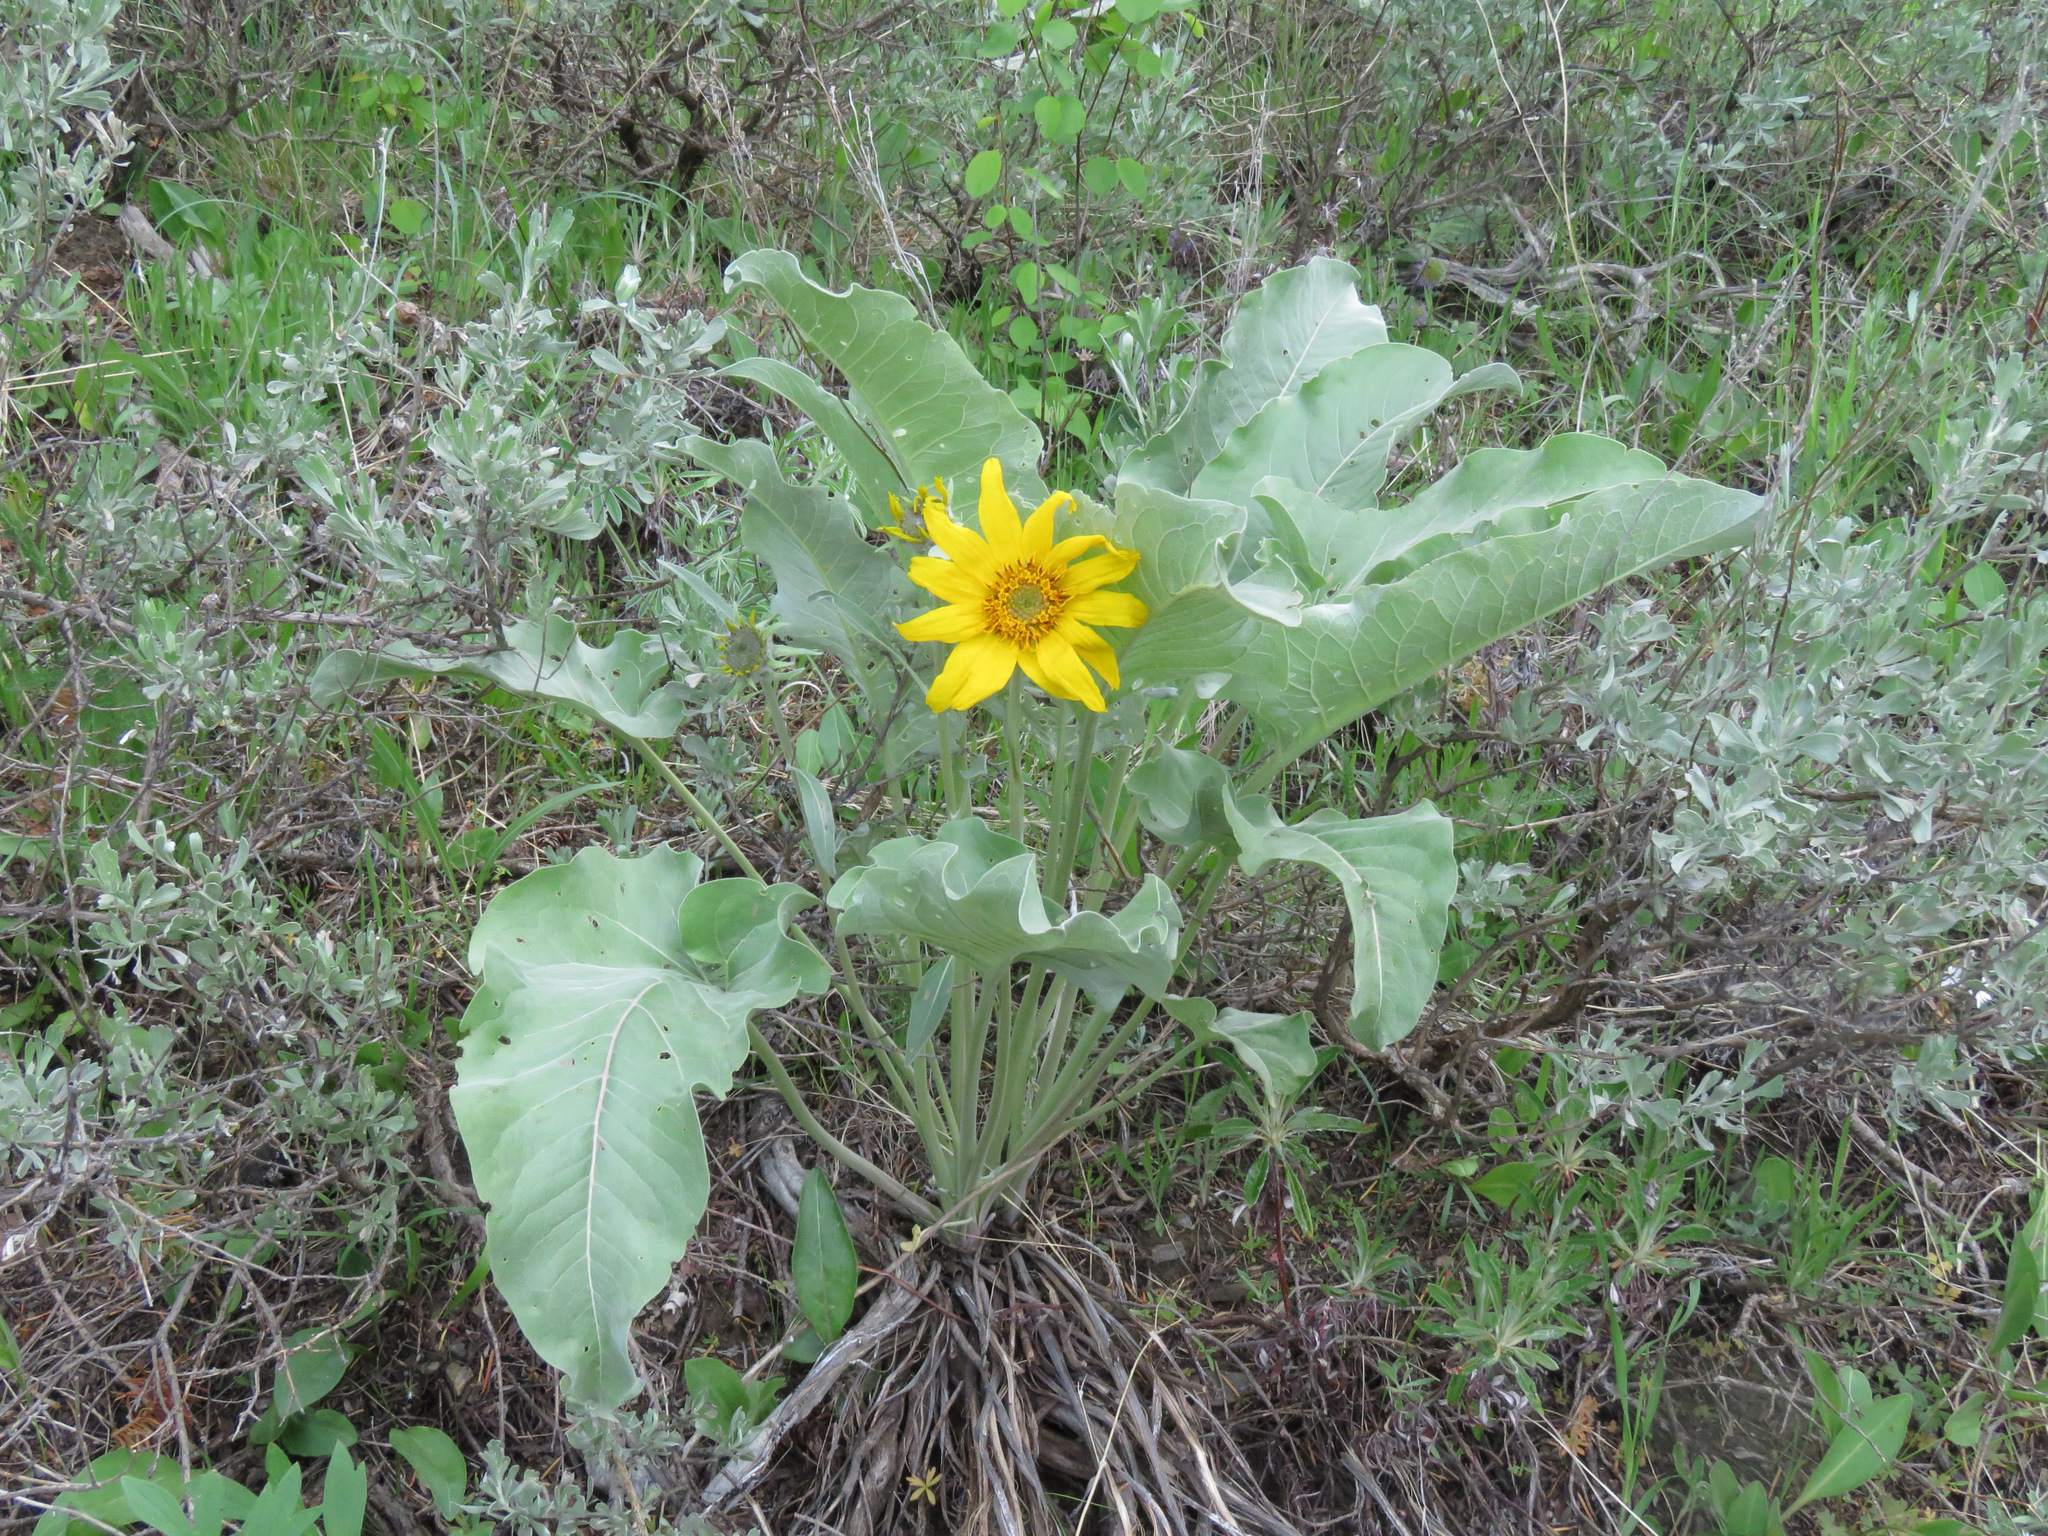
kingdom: Plantae
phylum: Tracheophyta
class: Magnoliopsida
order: Asterales
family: Asteraceae
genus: Wyethia
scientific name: Wyethia sagittata
